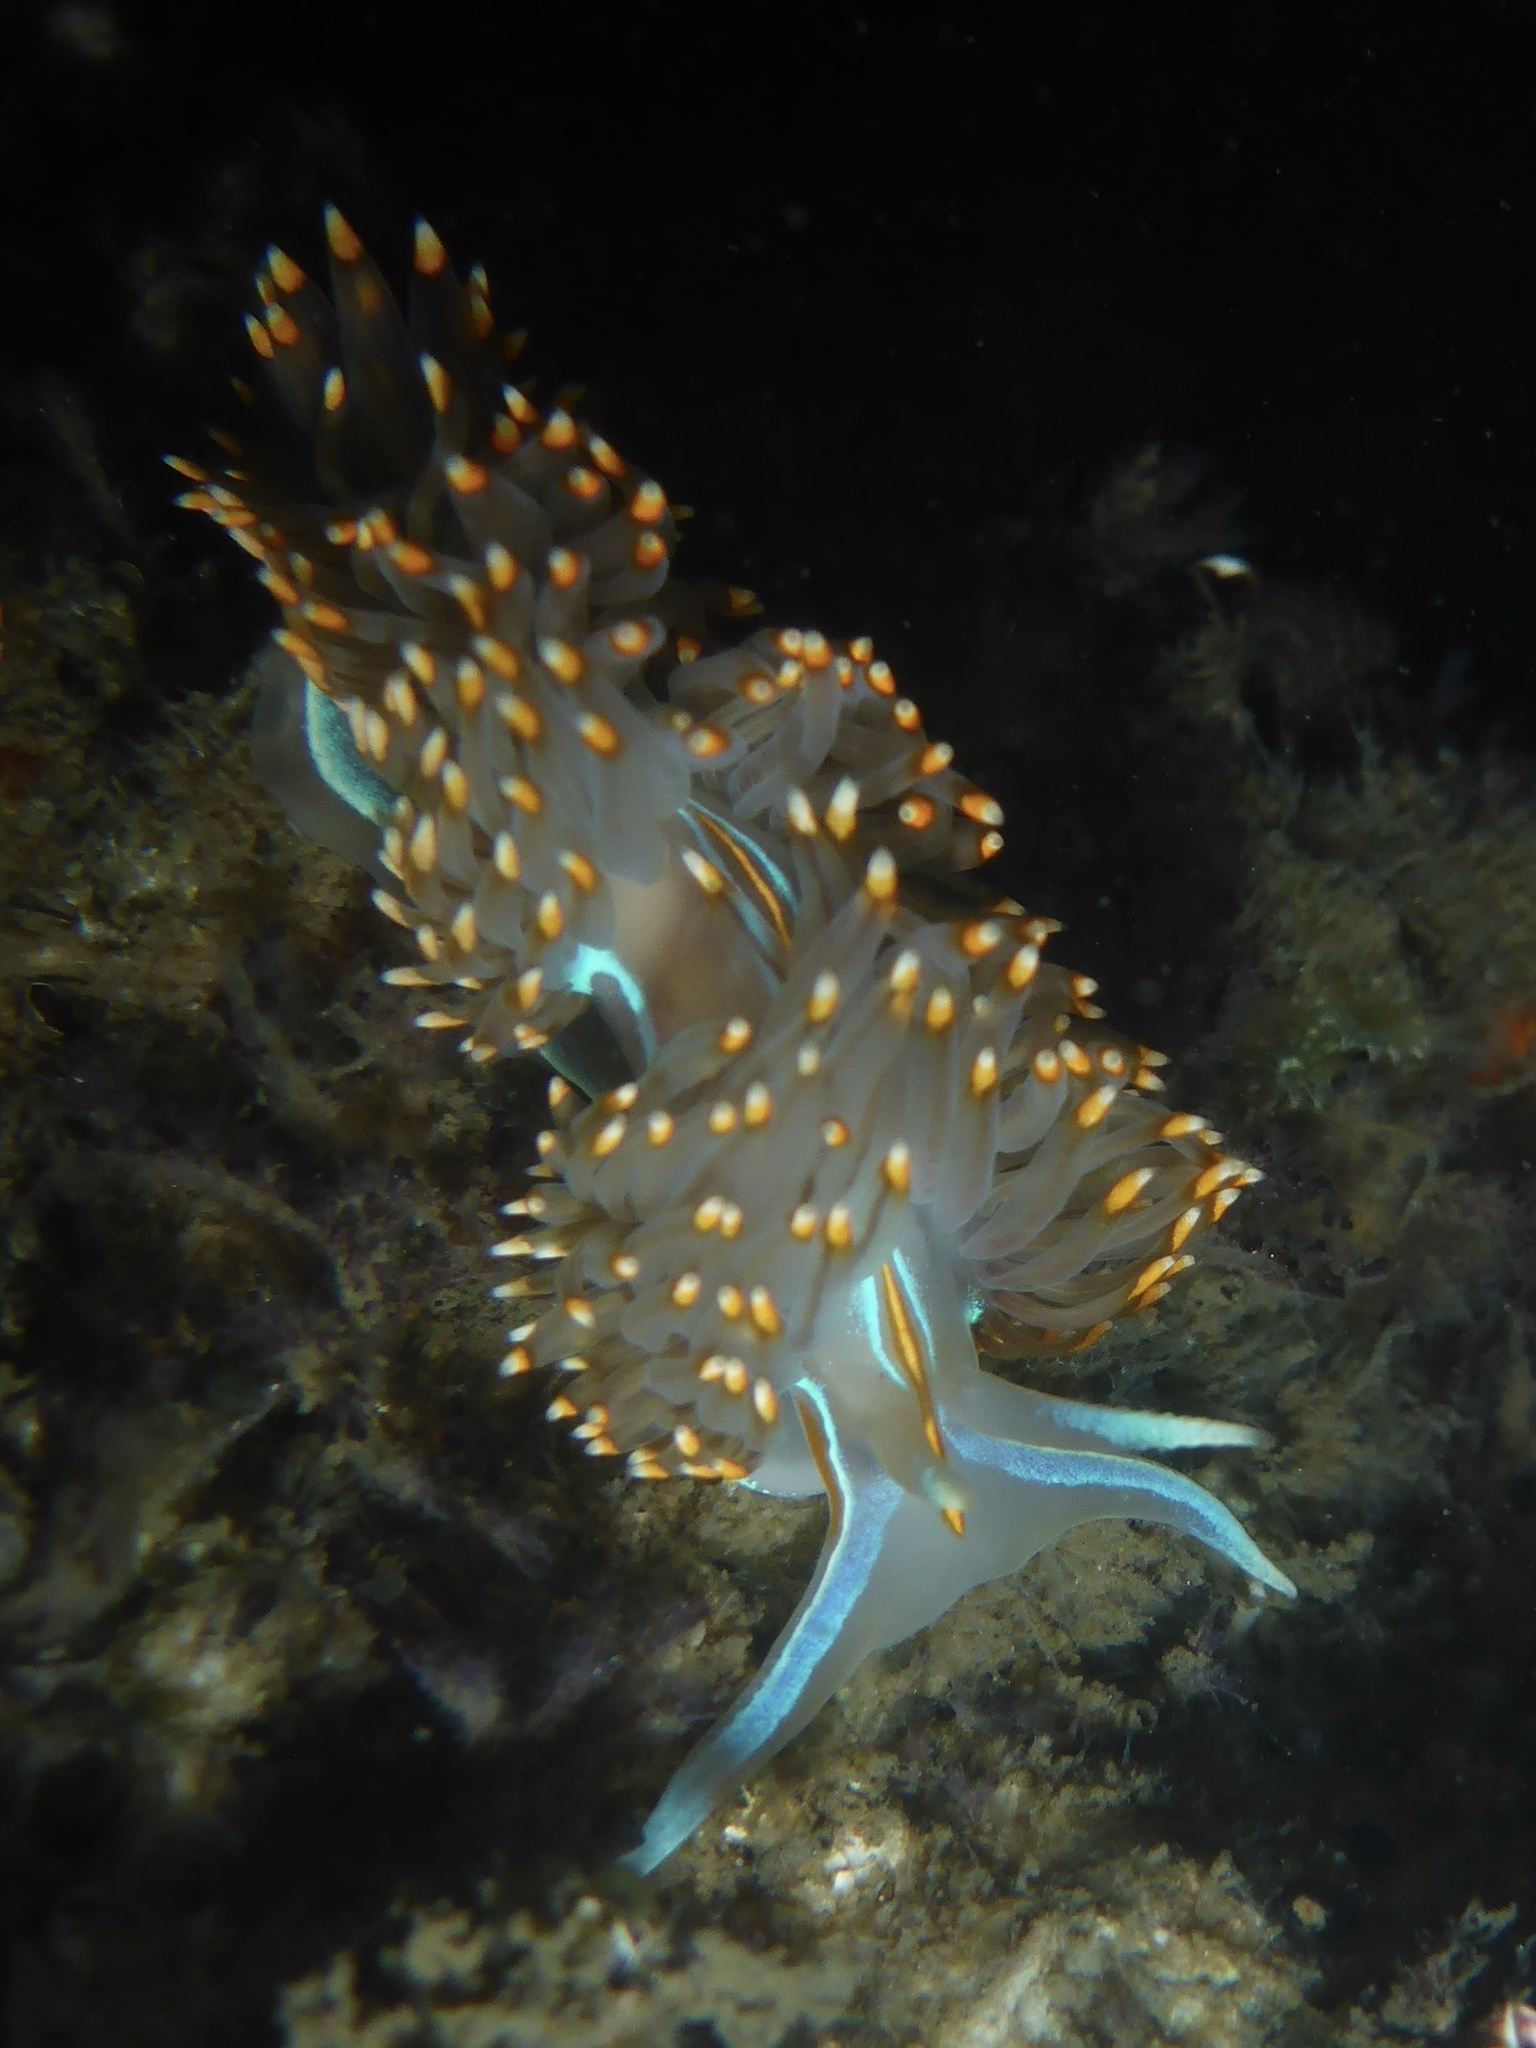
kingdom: Animalia
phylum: Mollusca
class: Gastropoda
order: Nudibranchia
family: Myrrhinidae
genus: Hermissenda
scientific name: Hermissenda opalescens
